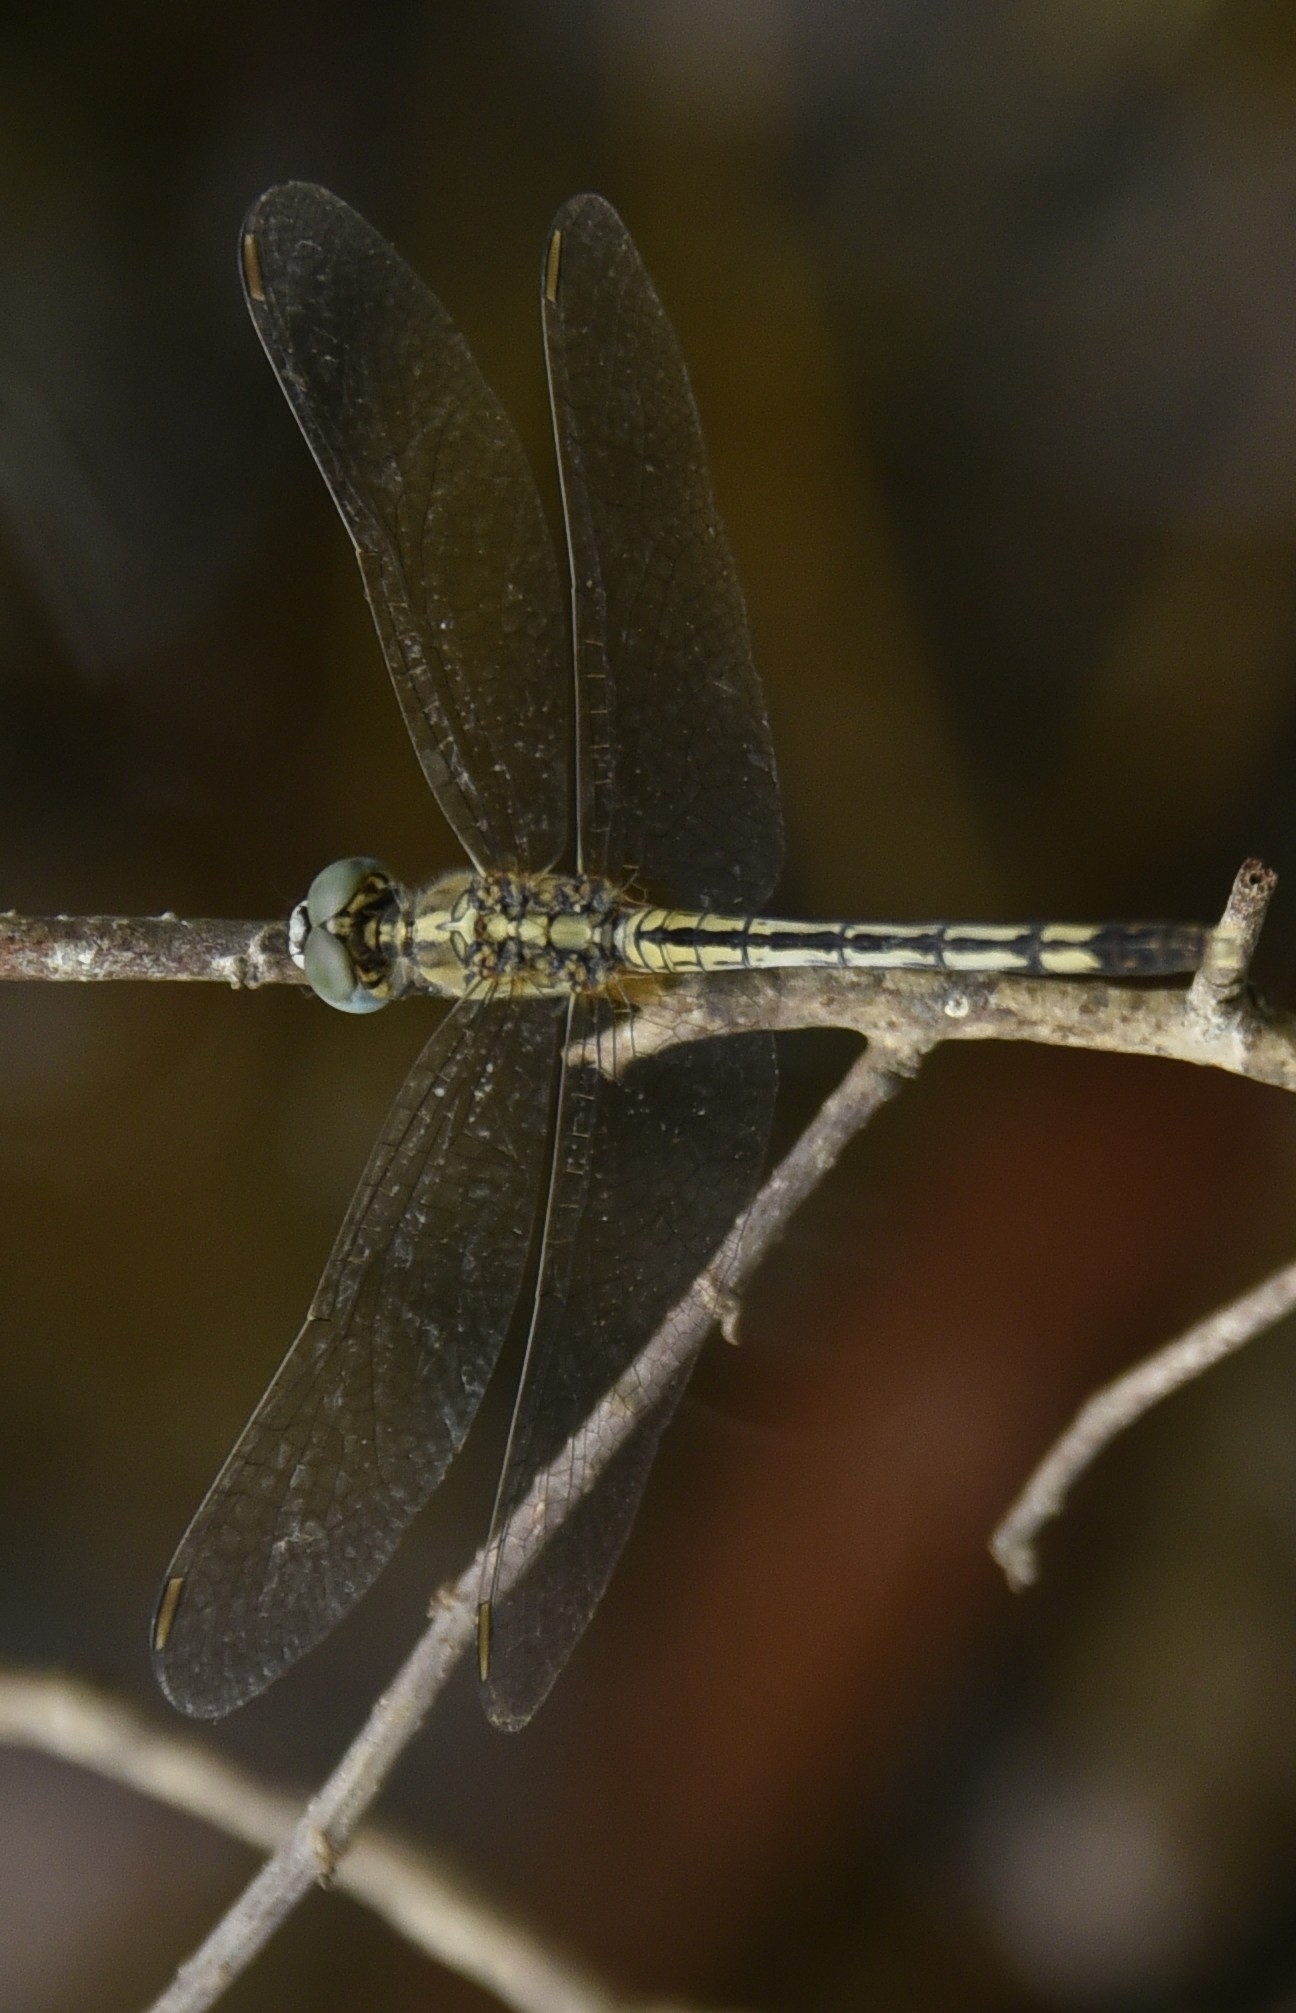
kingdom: Animalia
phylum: Arthropoda
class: Insecta
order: Odonata
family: Libellulidae
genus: Diplacodes
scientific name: Diplacodes trivialis
